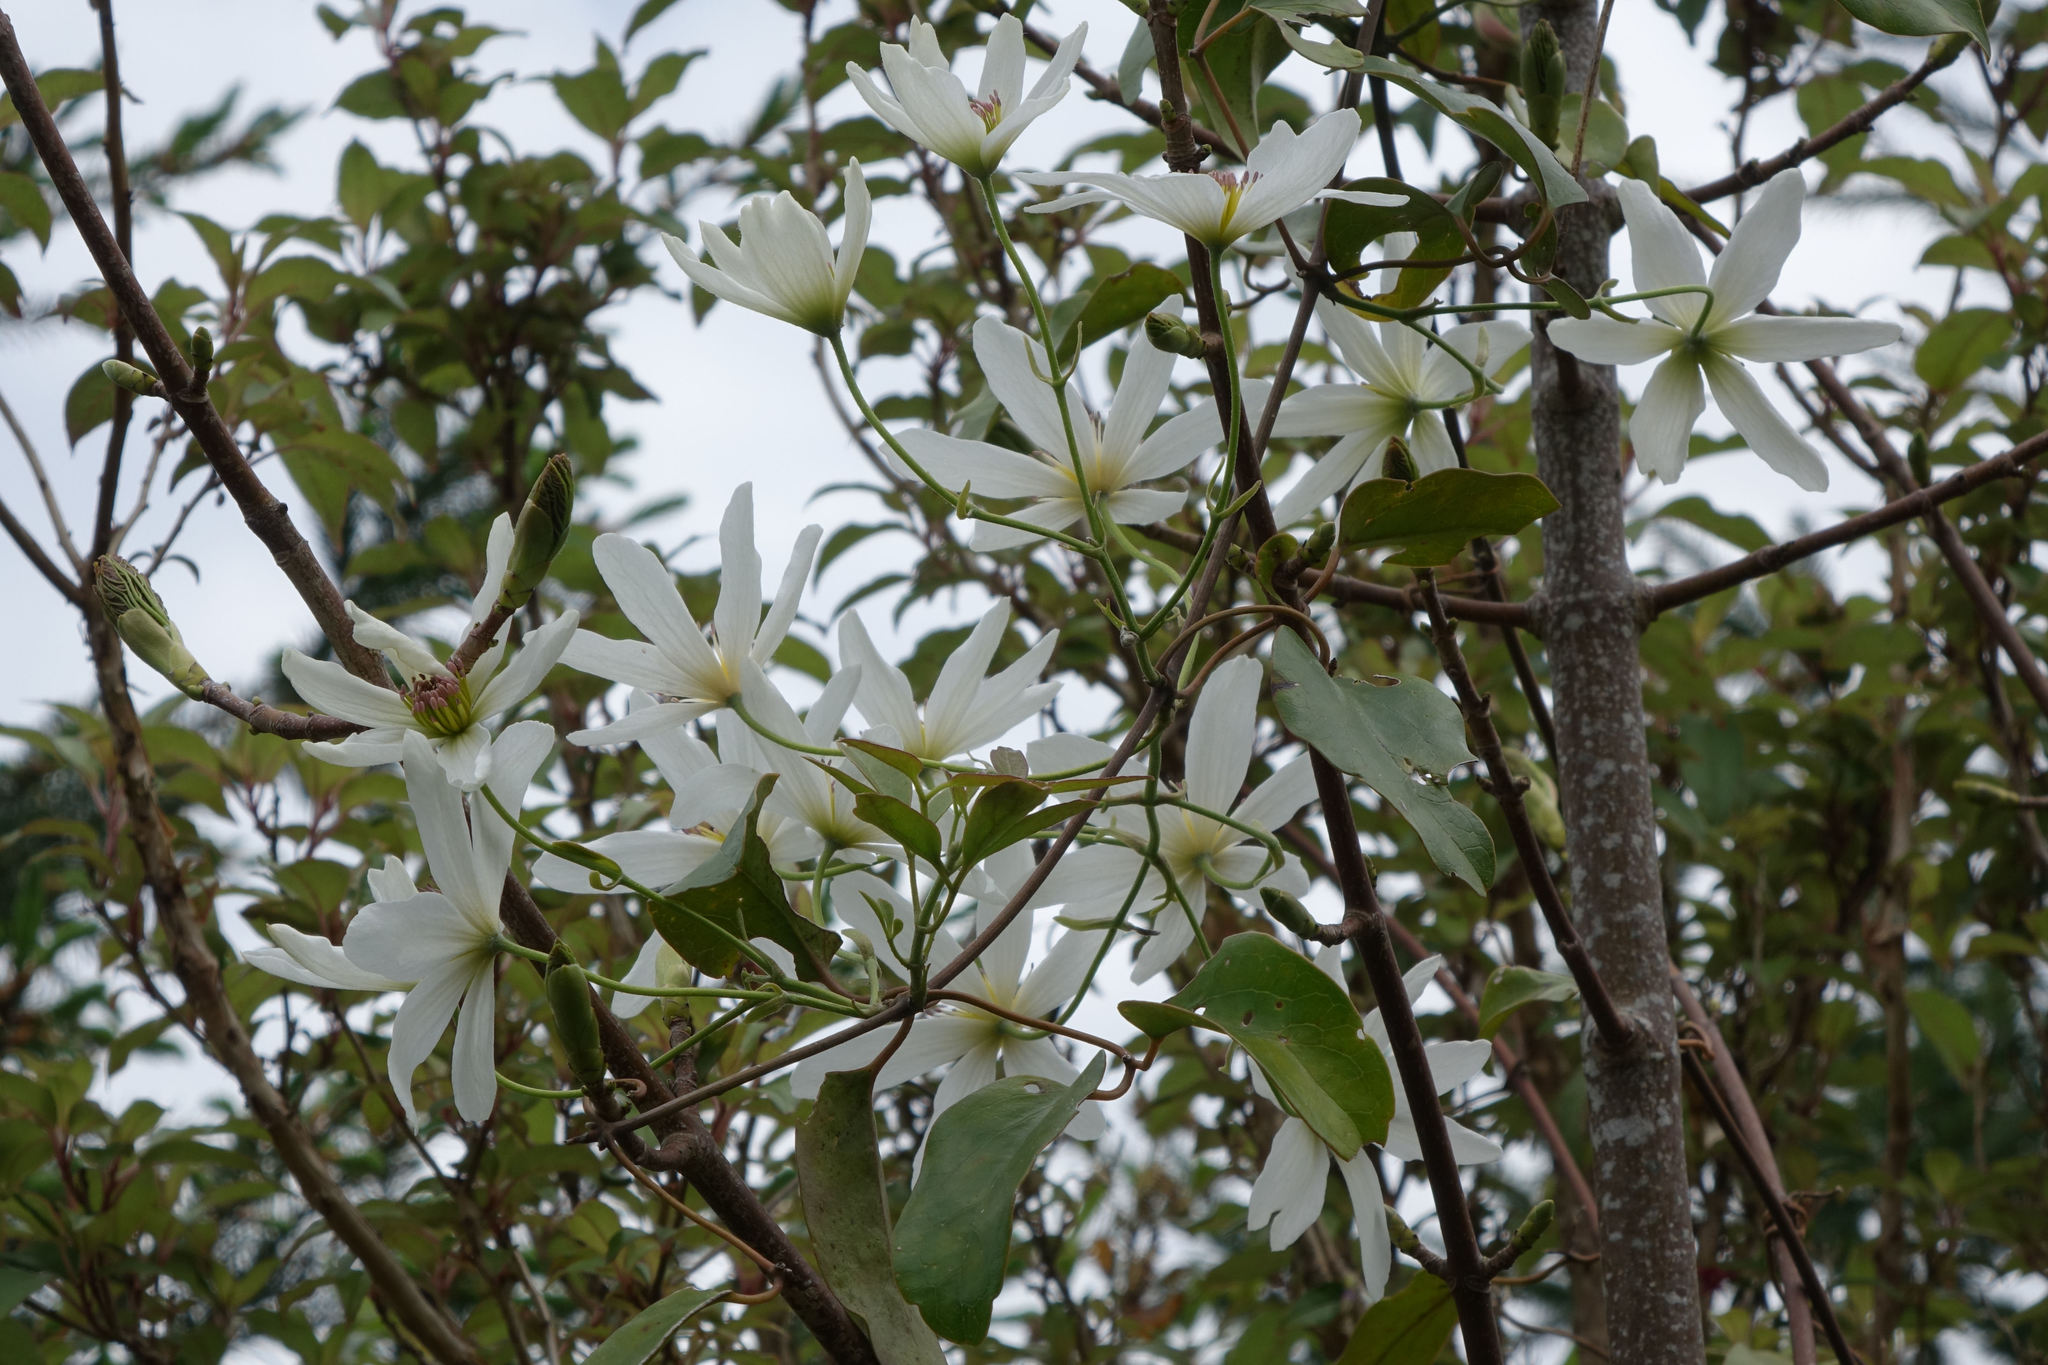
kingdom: Plantae
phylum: Tracheophyta
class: Magnoliopsida
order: Ranunculales
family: Ranunculaceae
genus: Clematis
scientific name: Clematis paniculata
